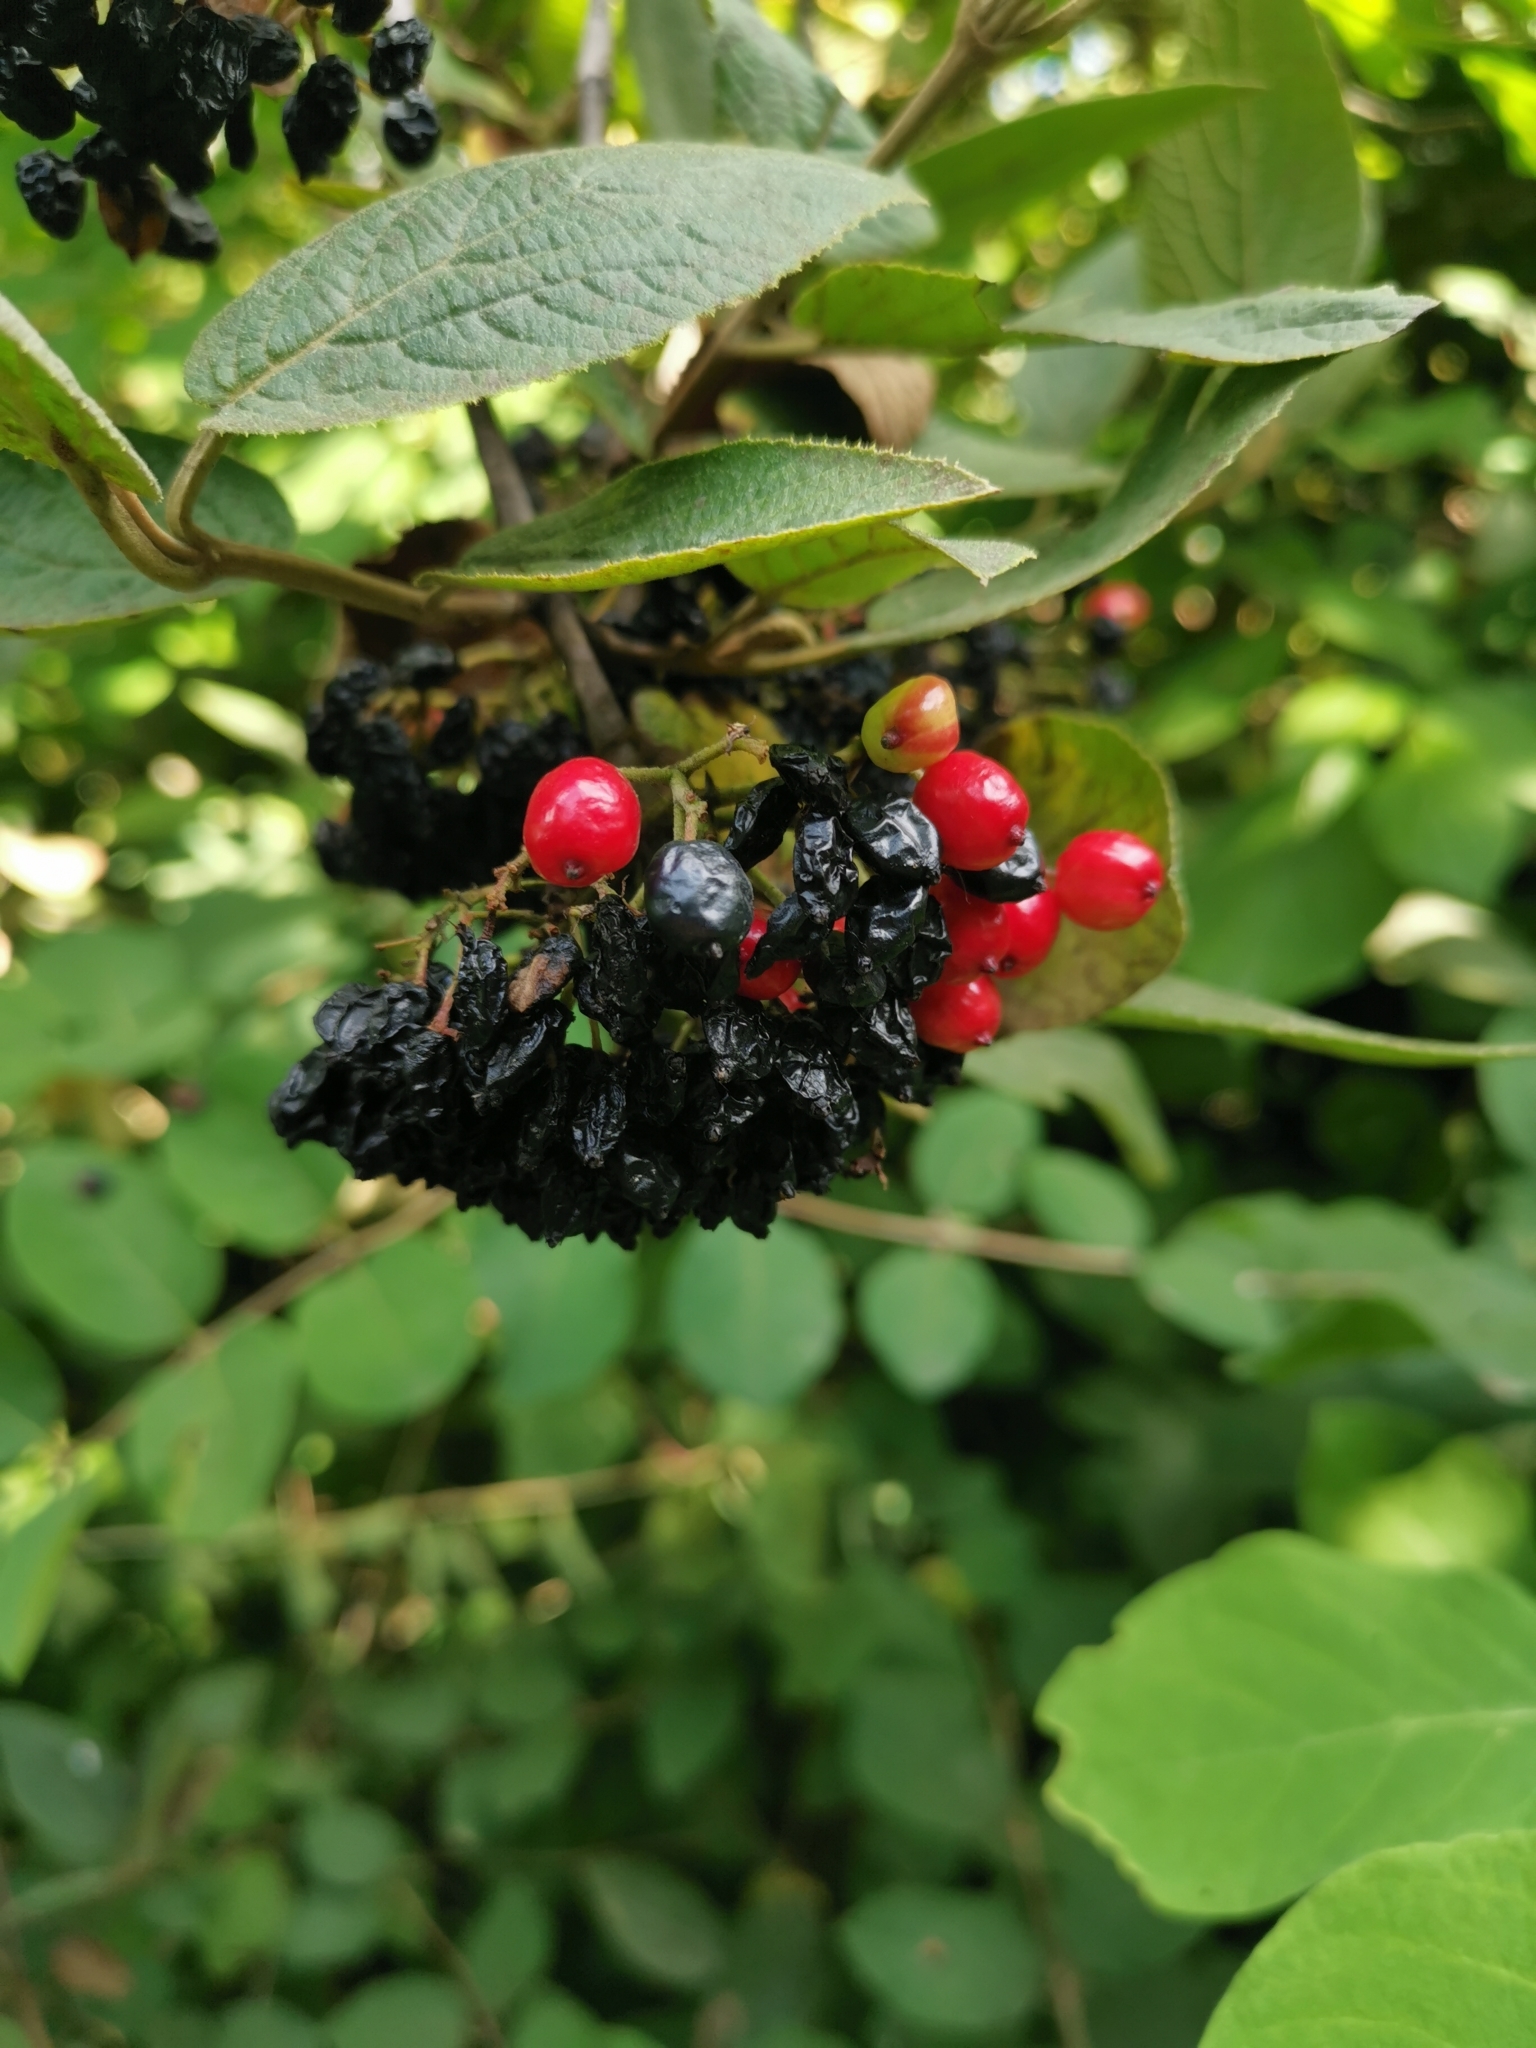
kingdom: Plantae
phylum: Tracheophyta
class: Magnoliopsida
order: Dipsacales
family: Viburnaceae
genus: Viburnum
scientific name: Viburnum lantana
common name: Wayfaring tree
